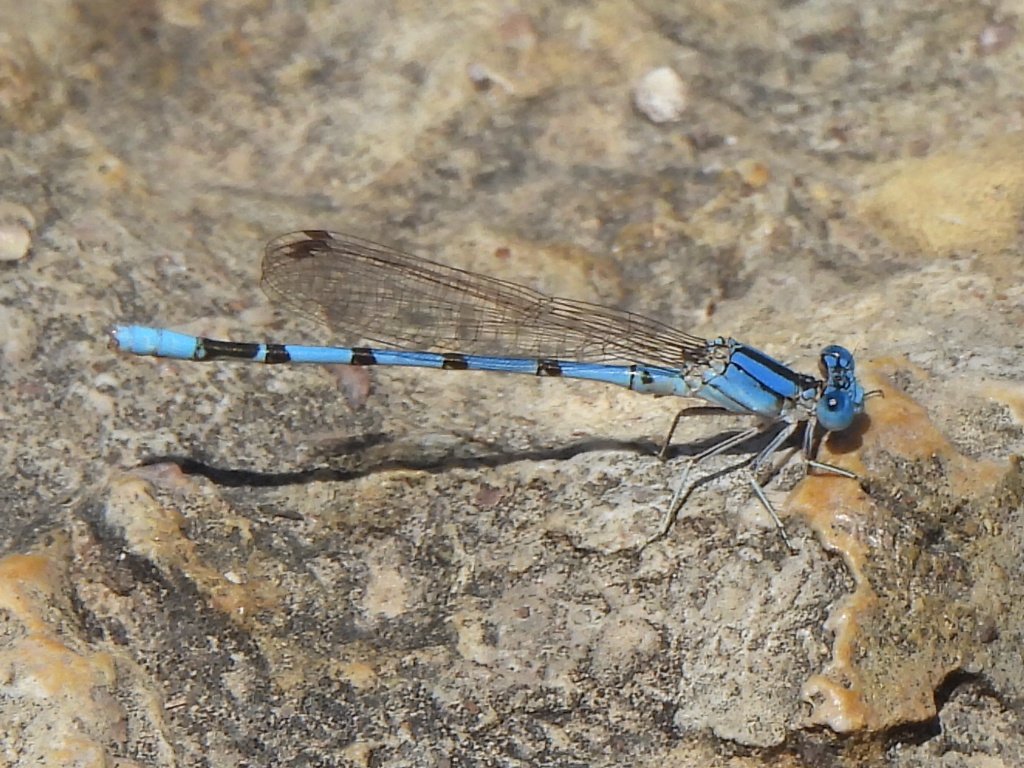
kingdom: Animalia
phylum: Arthropoda
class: Insecta
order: Odonata
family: Coenagrionidae
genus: Argia
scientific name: Argia nahuana
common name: Aztec dancer
